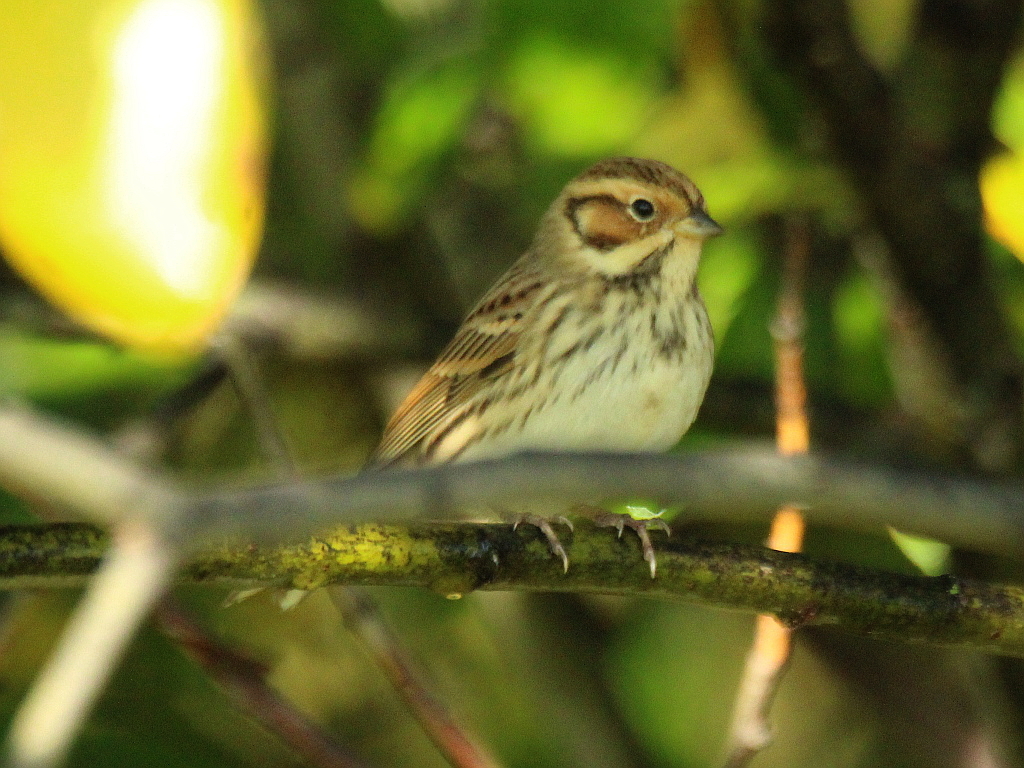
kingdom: Animalia
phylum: Chordata
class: Aves
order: Passeriformes
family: Emberizidae
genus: Emberiza
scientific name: Emberiza pusilla
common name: Little bunting
